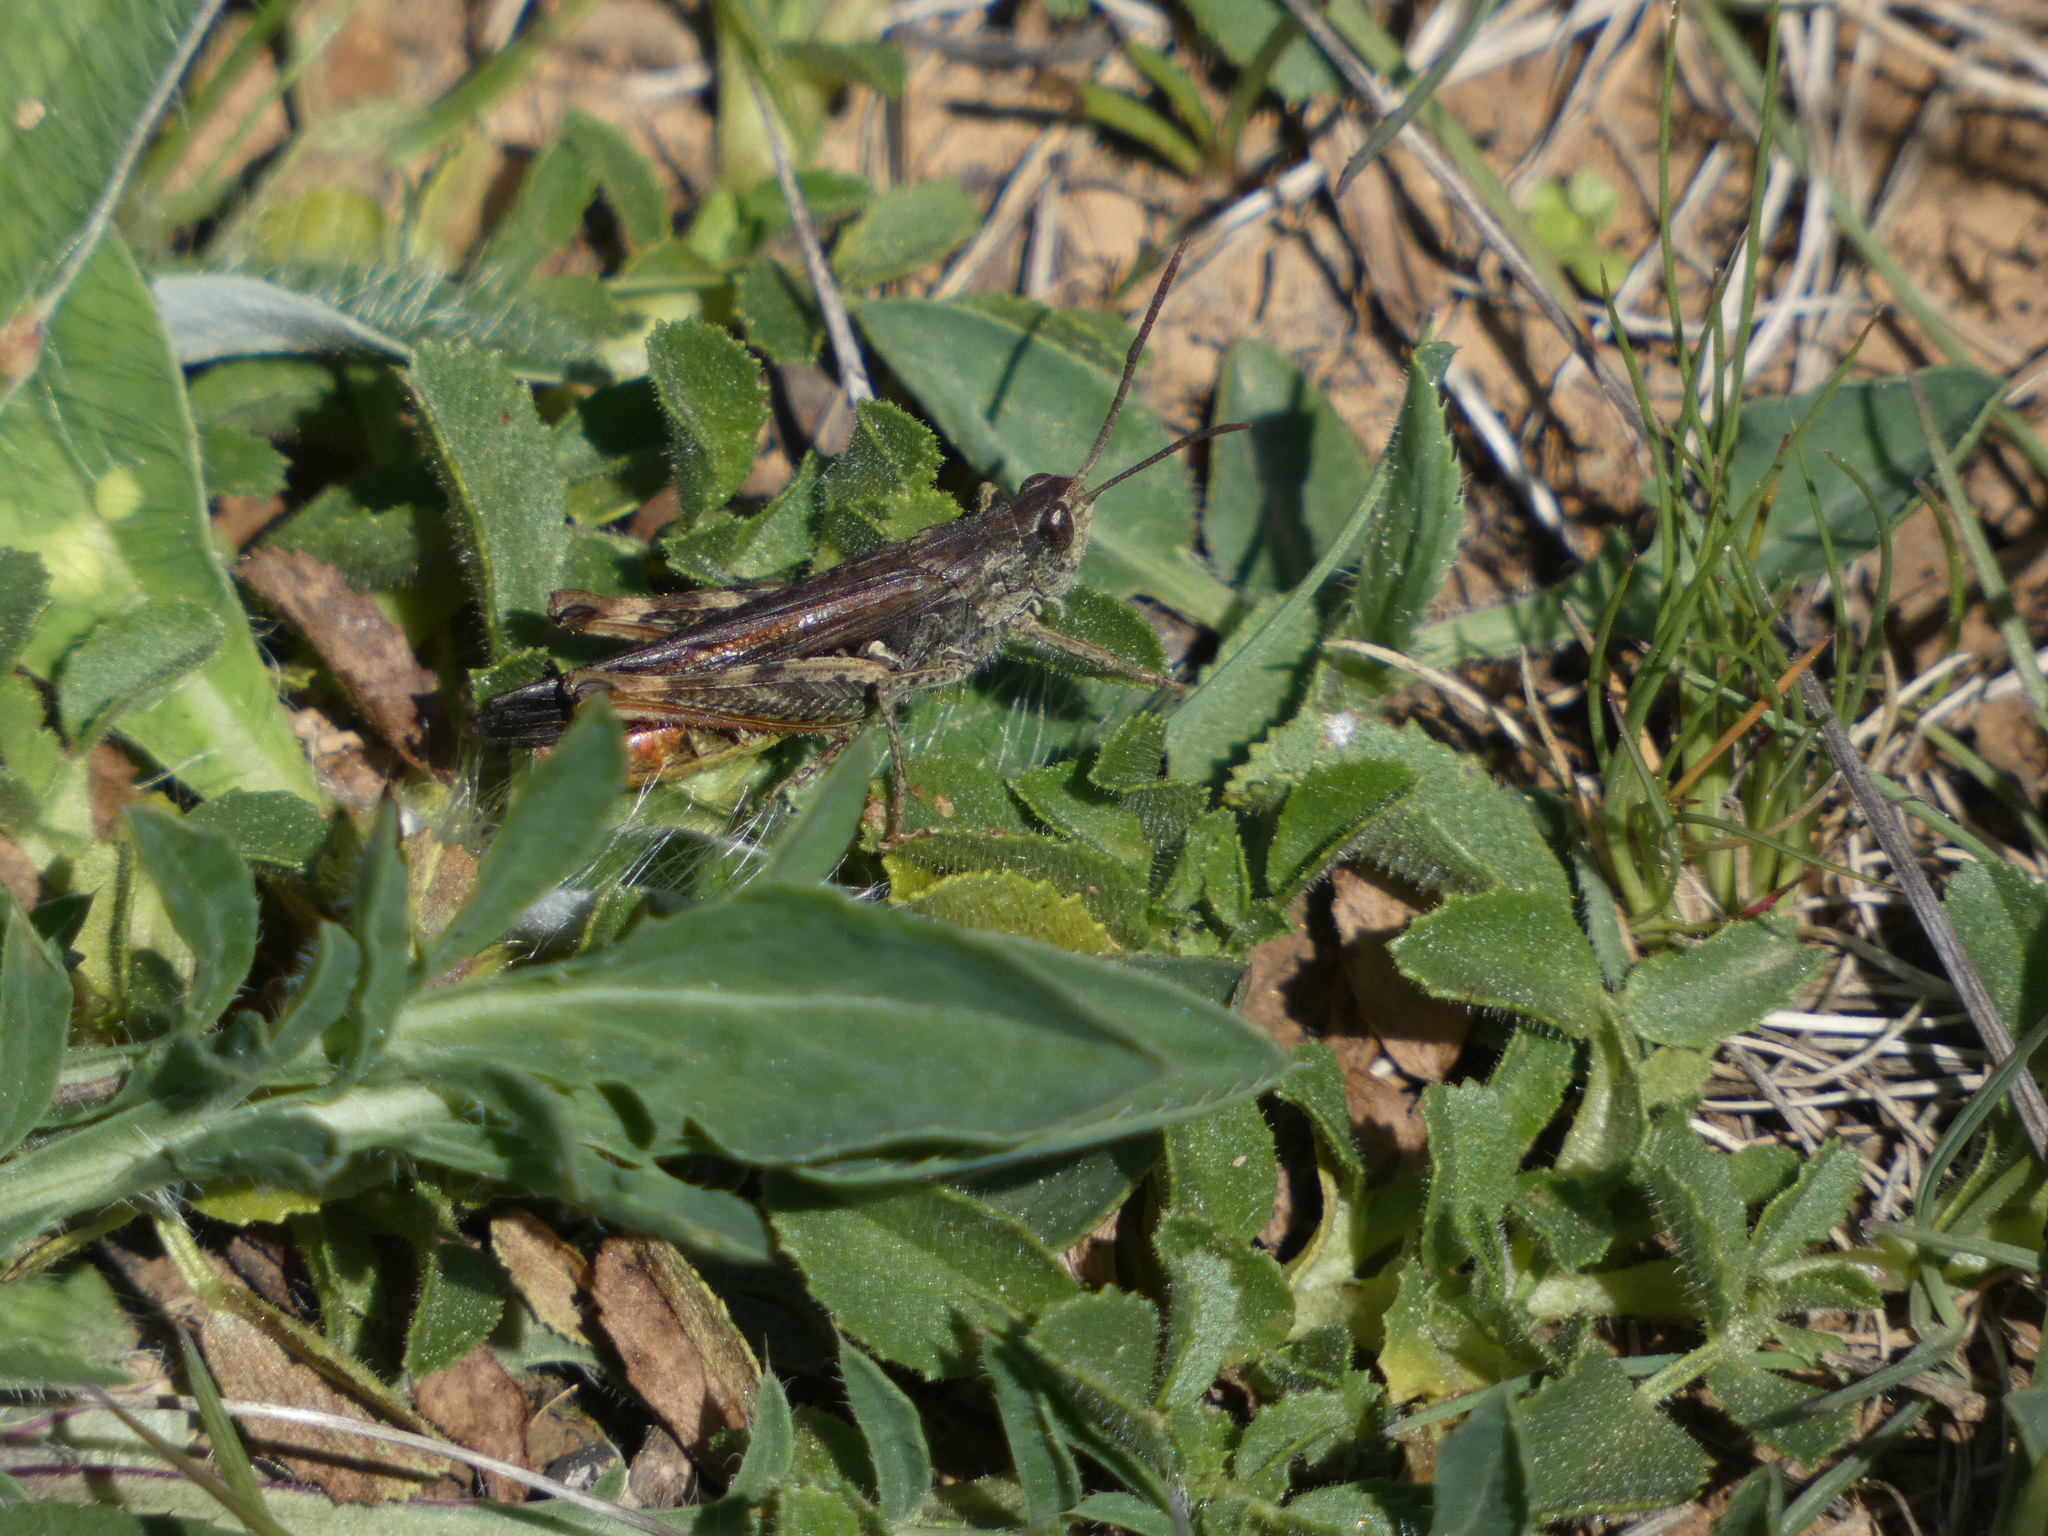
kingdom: Animalia
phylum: Arthropoda
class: Insecta
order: Orthoptera
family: Acrididae
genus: Chorthippus
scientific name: Chorthippus brunneus
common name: Field grasshopper
